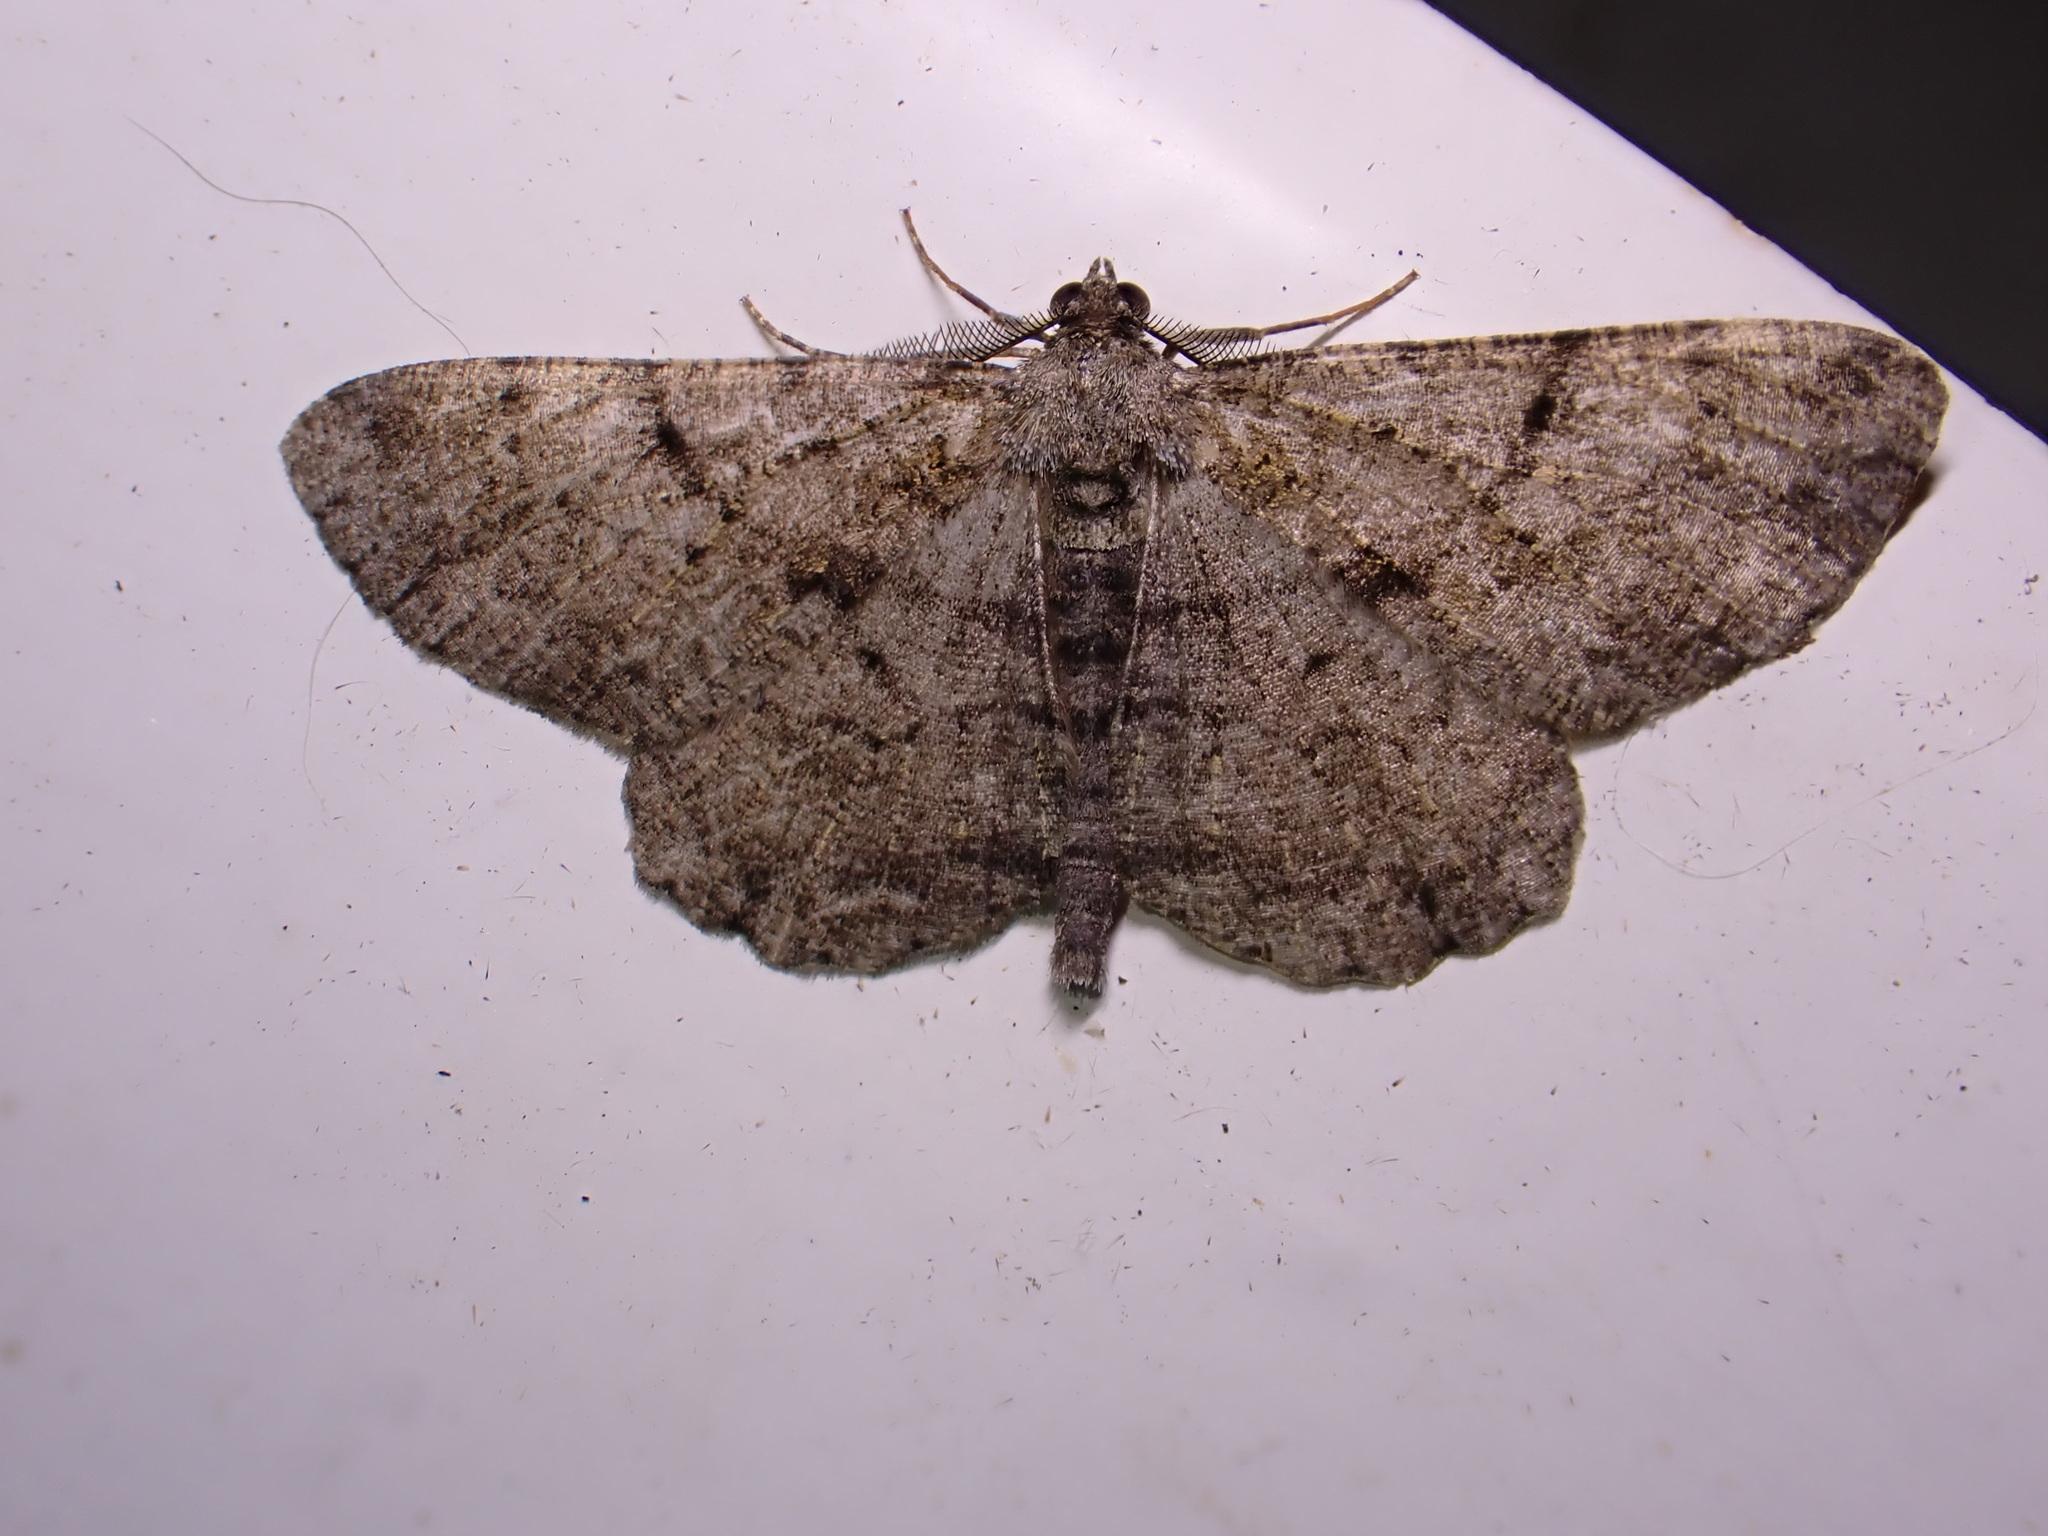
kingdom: Animalia
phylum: Arthropoda
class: Insecta
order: Lepidoptera
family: Geometridae
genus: Peribatodes
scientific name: Peribatodes rhomboidaria
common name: Willow beauty
